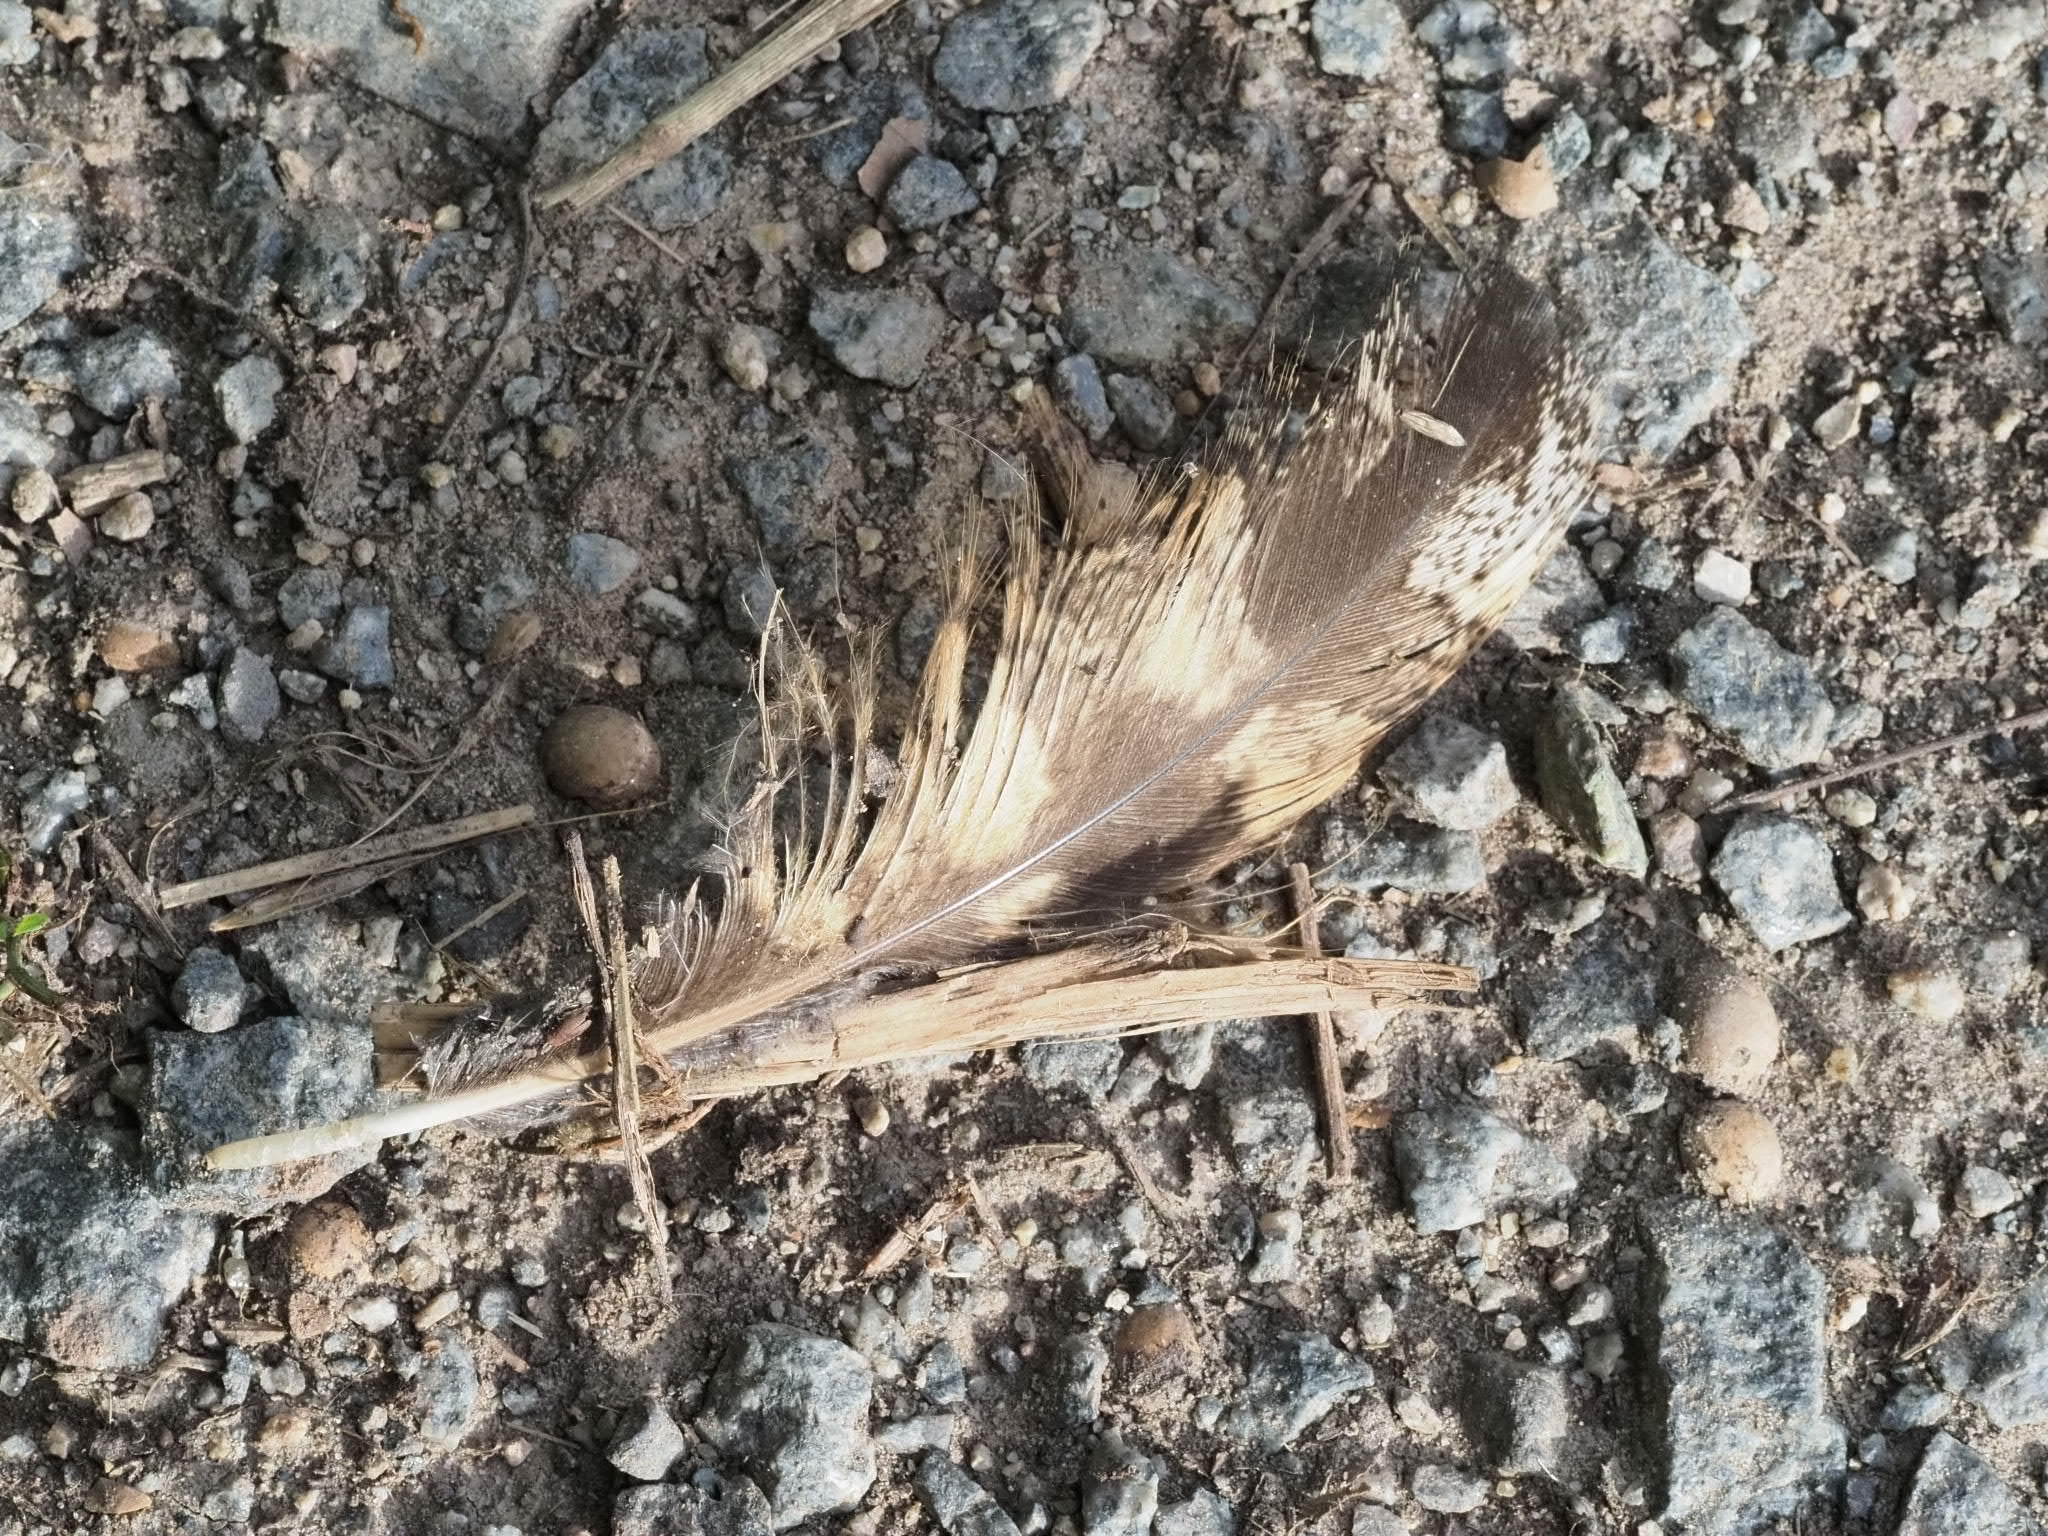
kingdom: Animalia
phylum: Chordata
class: Aves
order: Strigiformes
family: Strigidae
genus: Bubo
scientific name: Bubo bubo
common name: Eurasian eagle-owl
